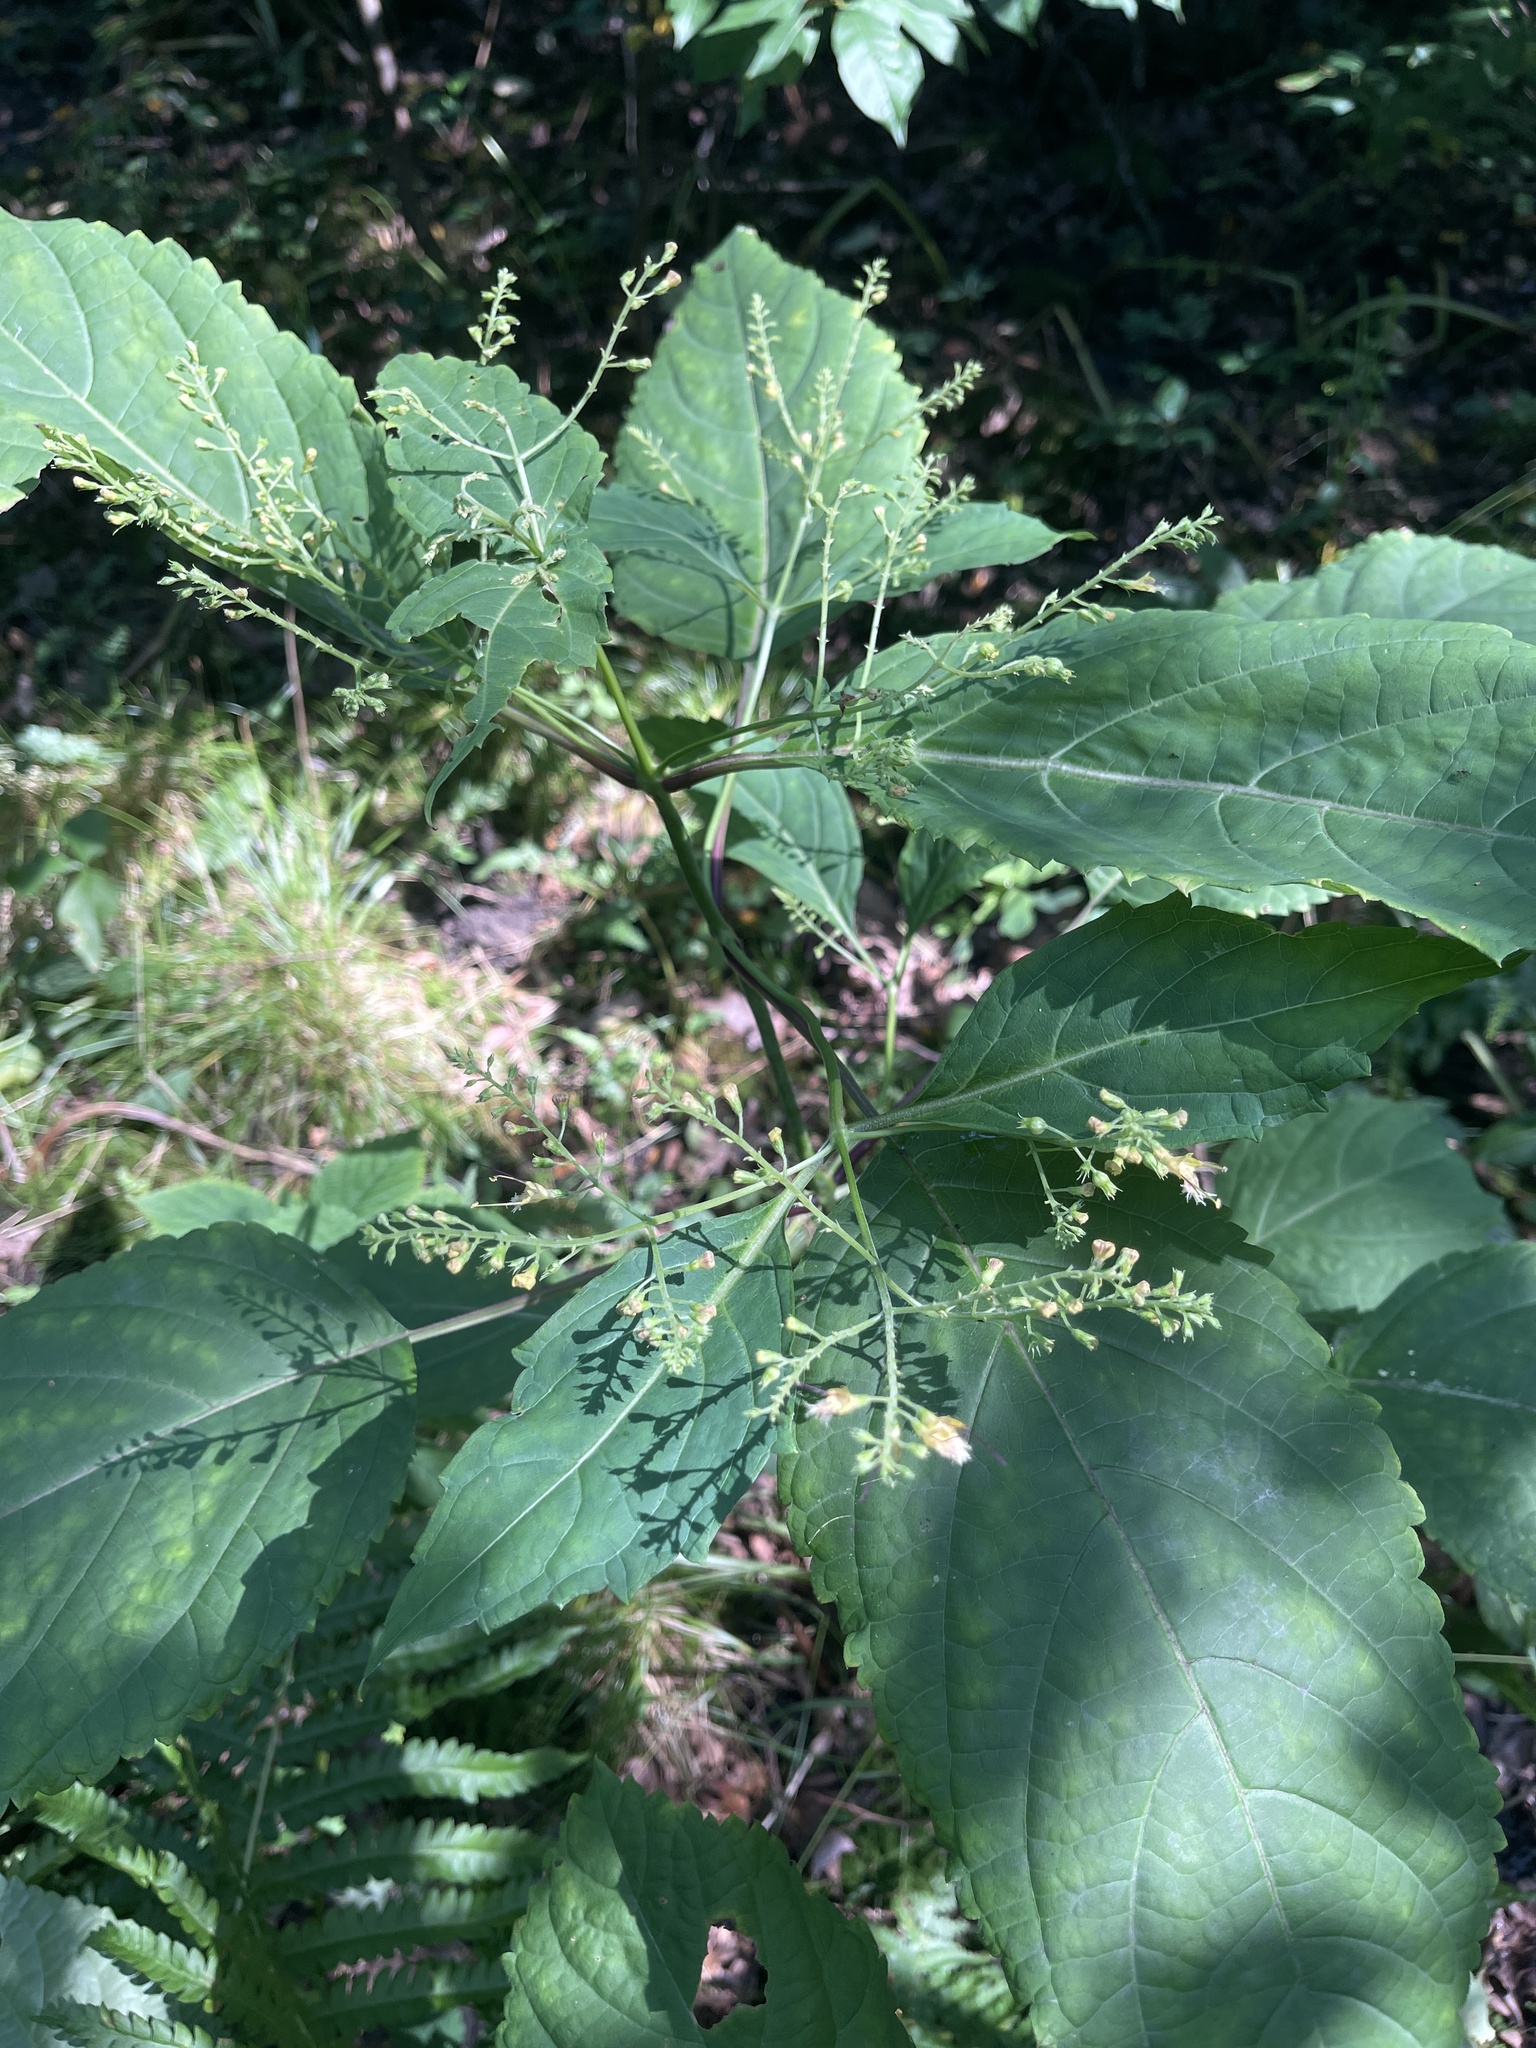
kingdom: Plantae
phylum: Tracheophyta
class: Magnoliopsida
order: Lamiales
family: Lamiaceae
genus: Collinsonia
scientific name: Collinsonia canadensis
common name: Northern horsebalm
